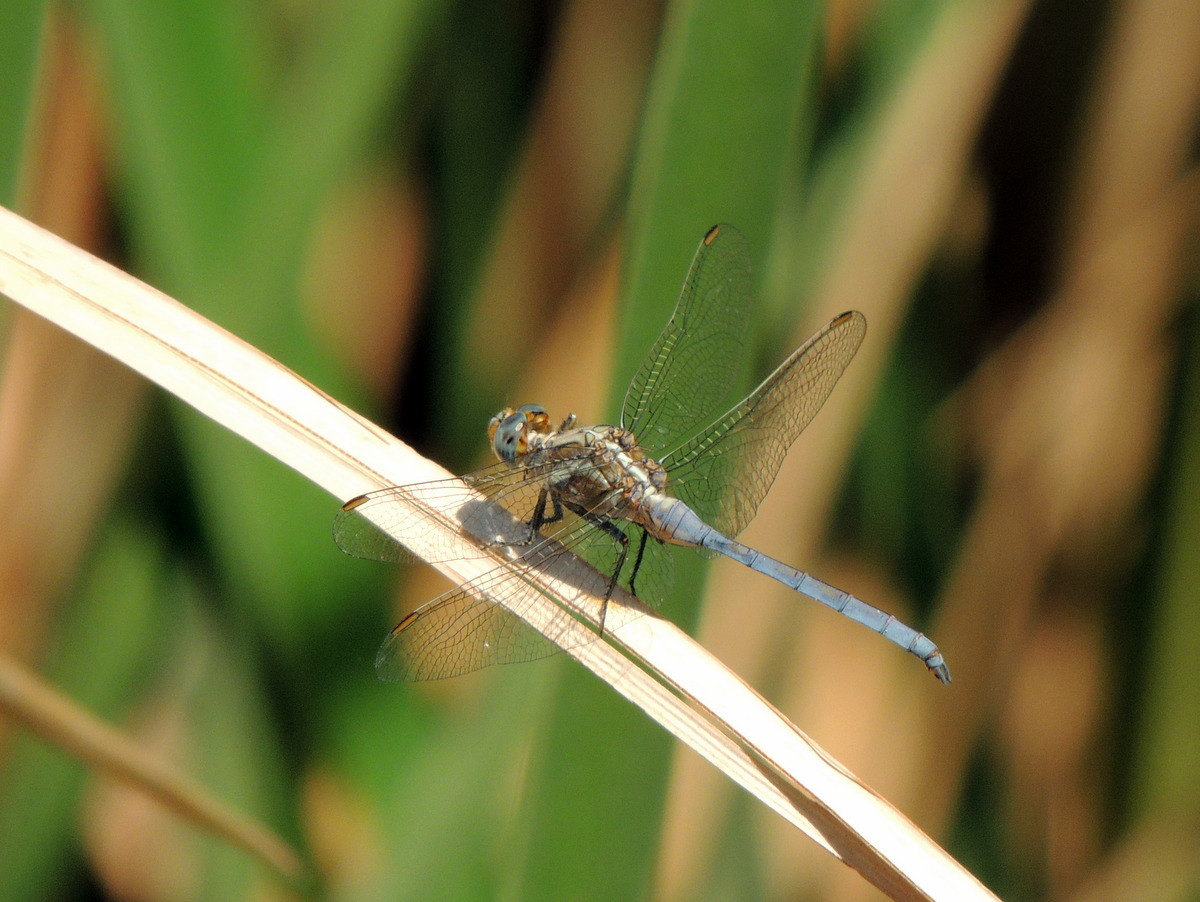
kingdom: Animalia
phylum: Arthropoda
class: Insecta
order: Odonata
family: Libellulidae
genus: Orthetrum
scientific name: Orthetrum chrysostigma
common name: Epaulet skimmer
